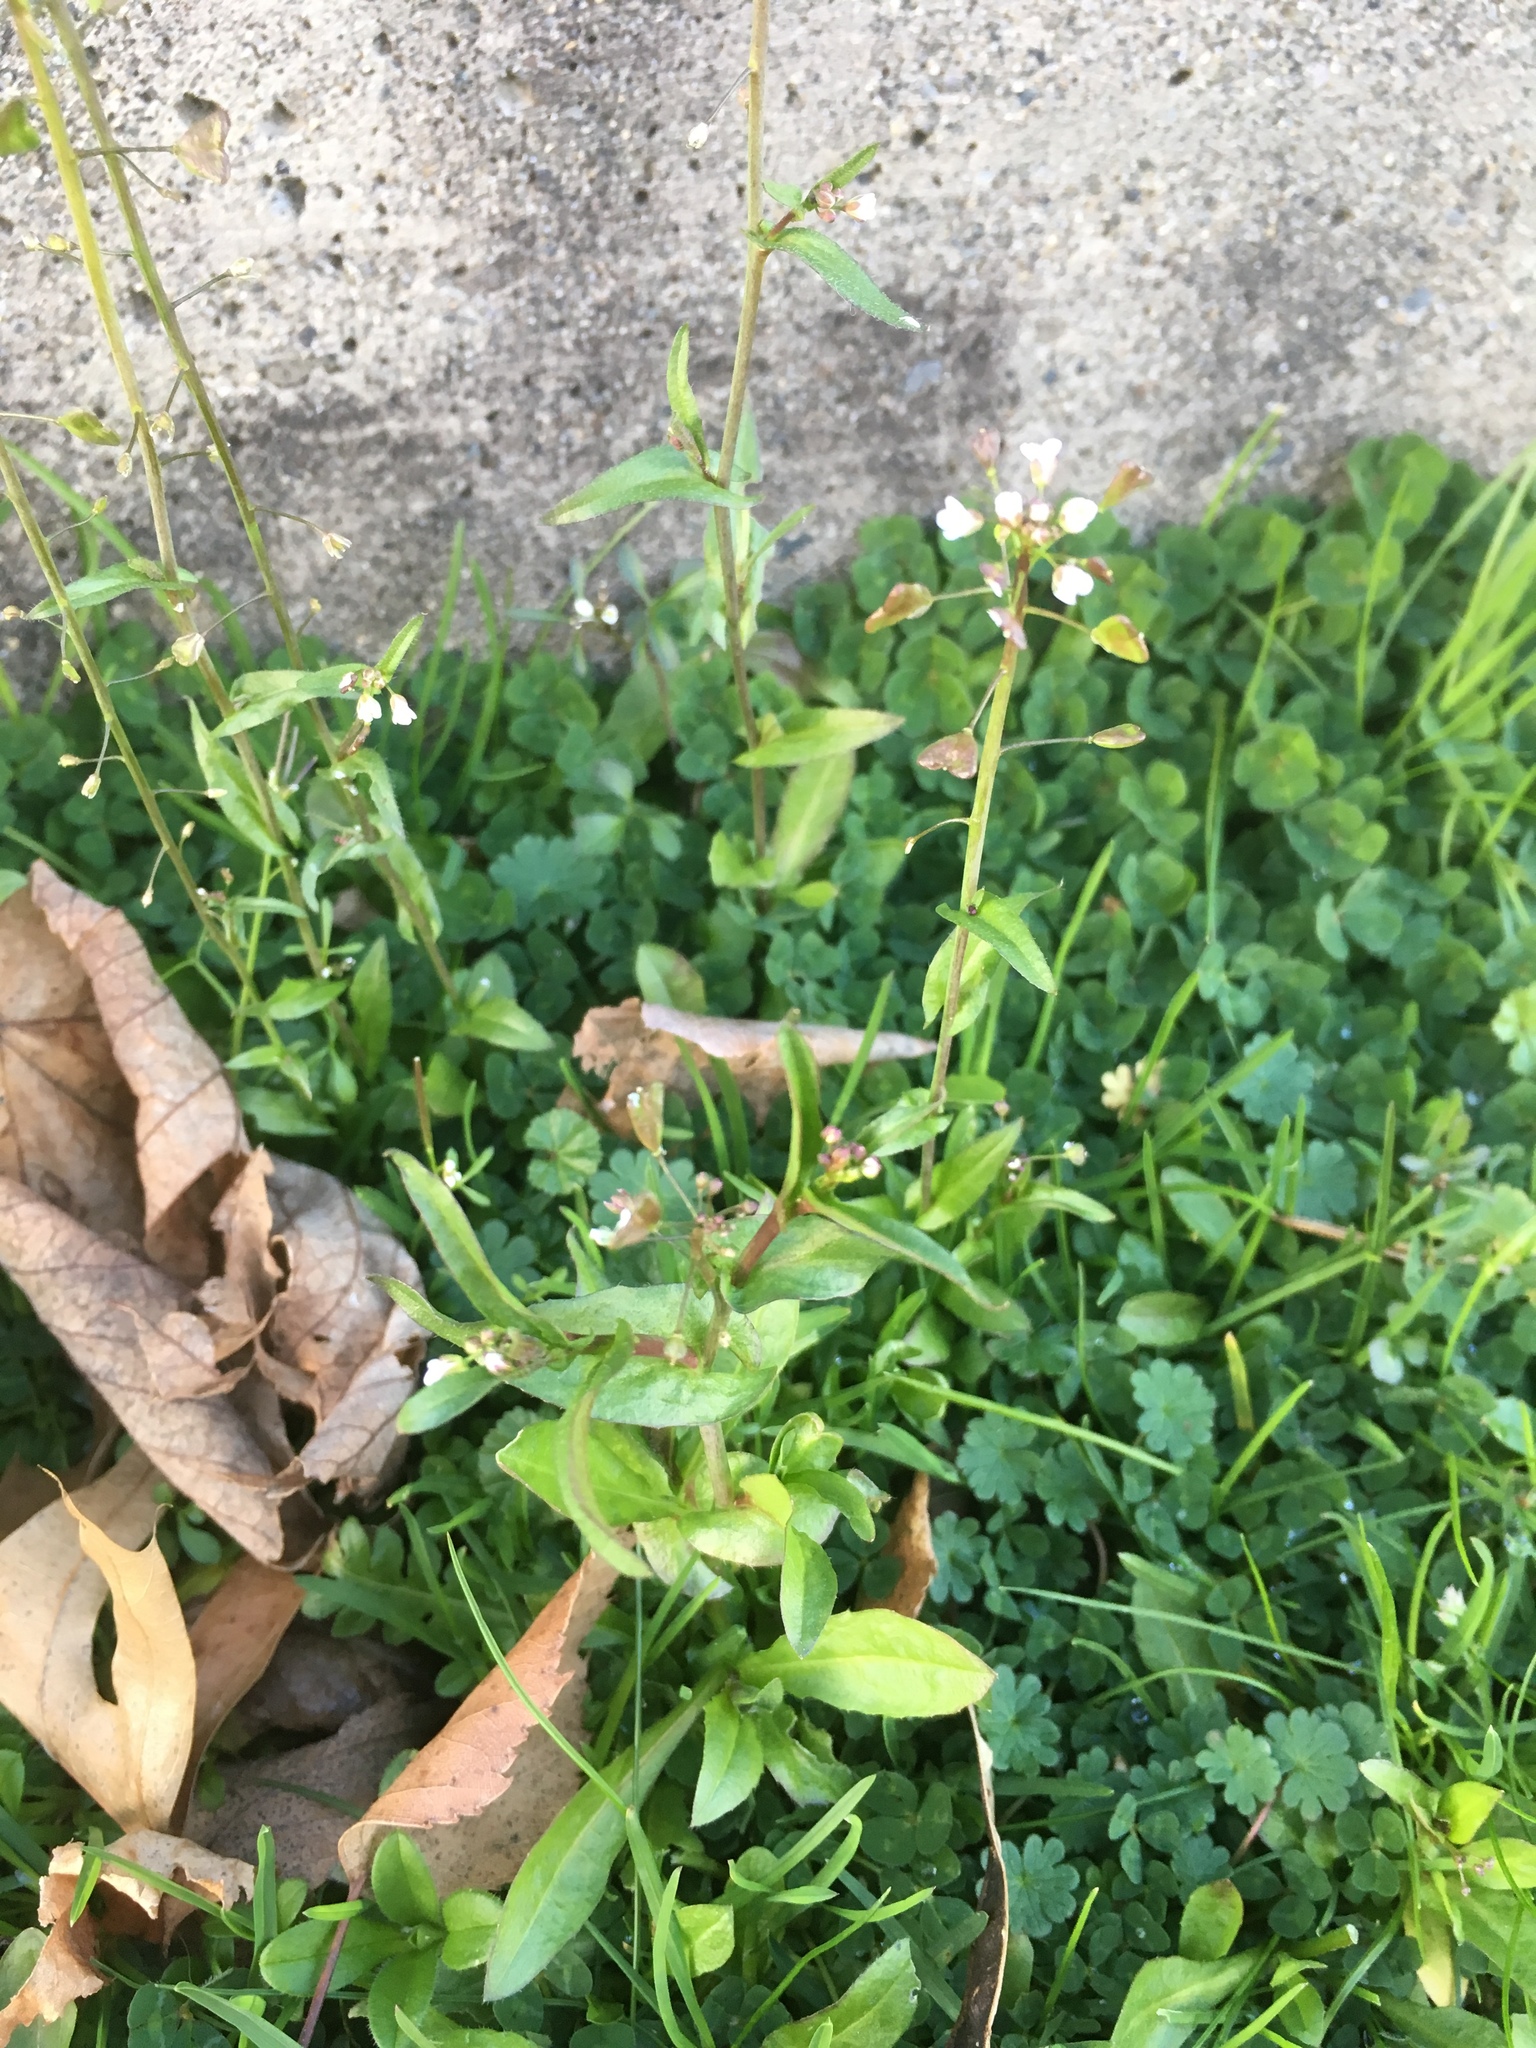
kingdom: Plantae
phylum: Tracheophyta
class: Magnoliopsida
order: Brassicales
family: Brassicaceae
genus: Capsella
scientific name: Capsella bursa-pastoris
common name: Shepherd's purse
